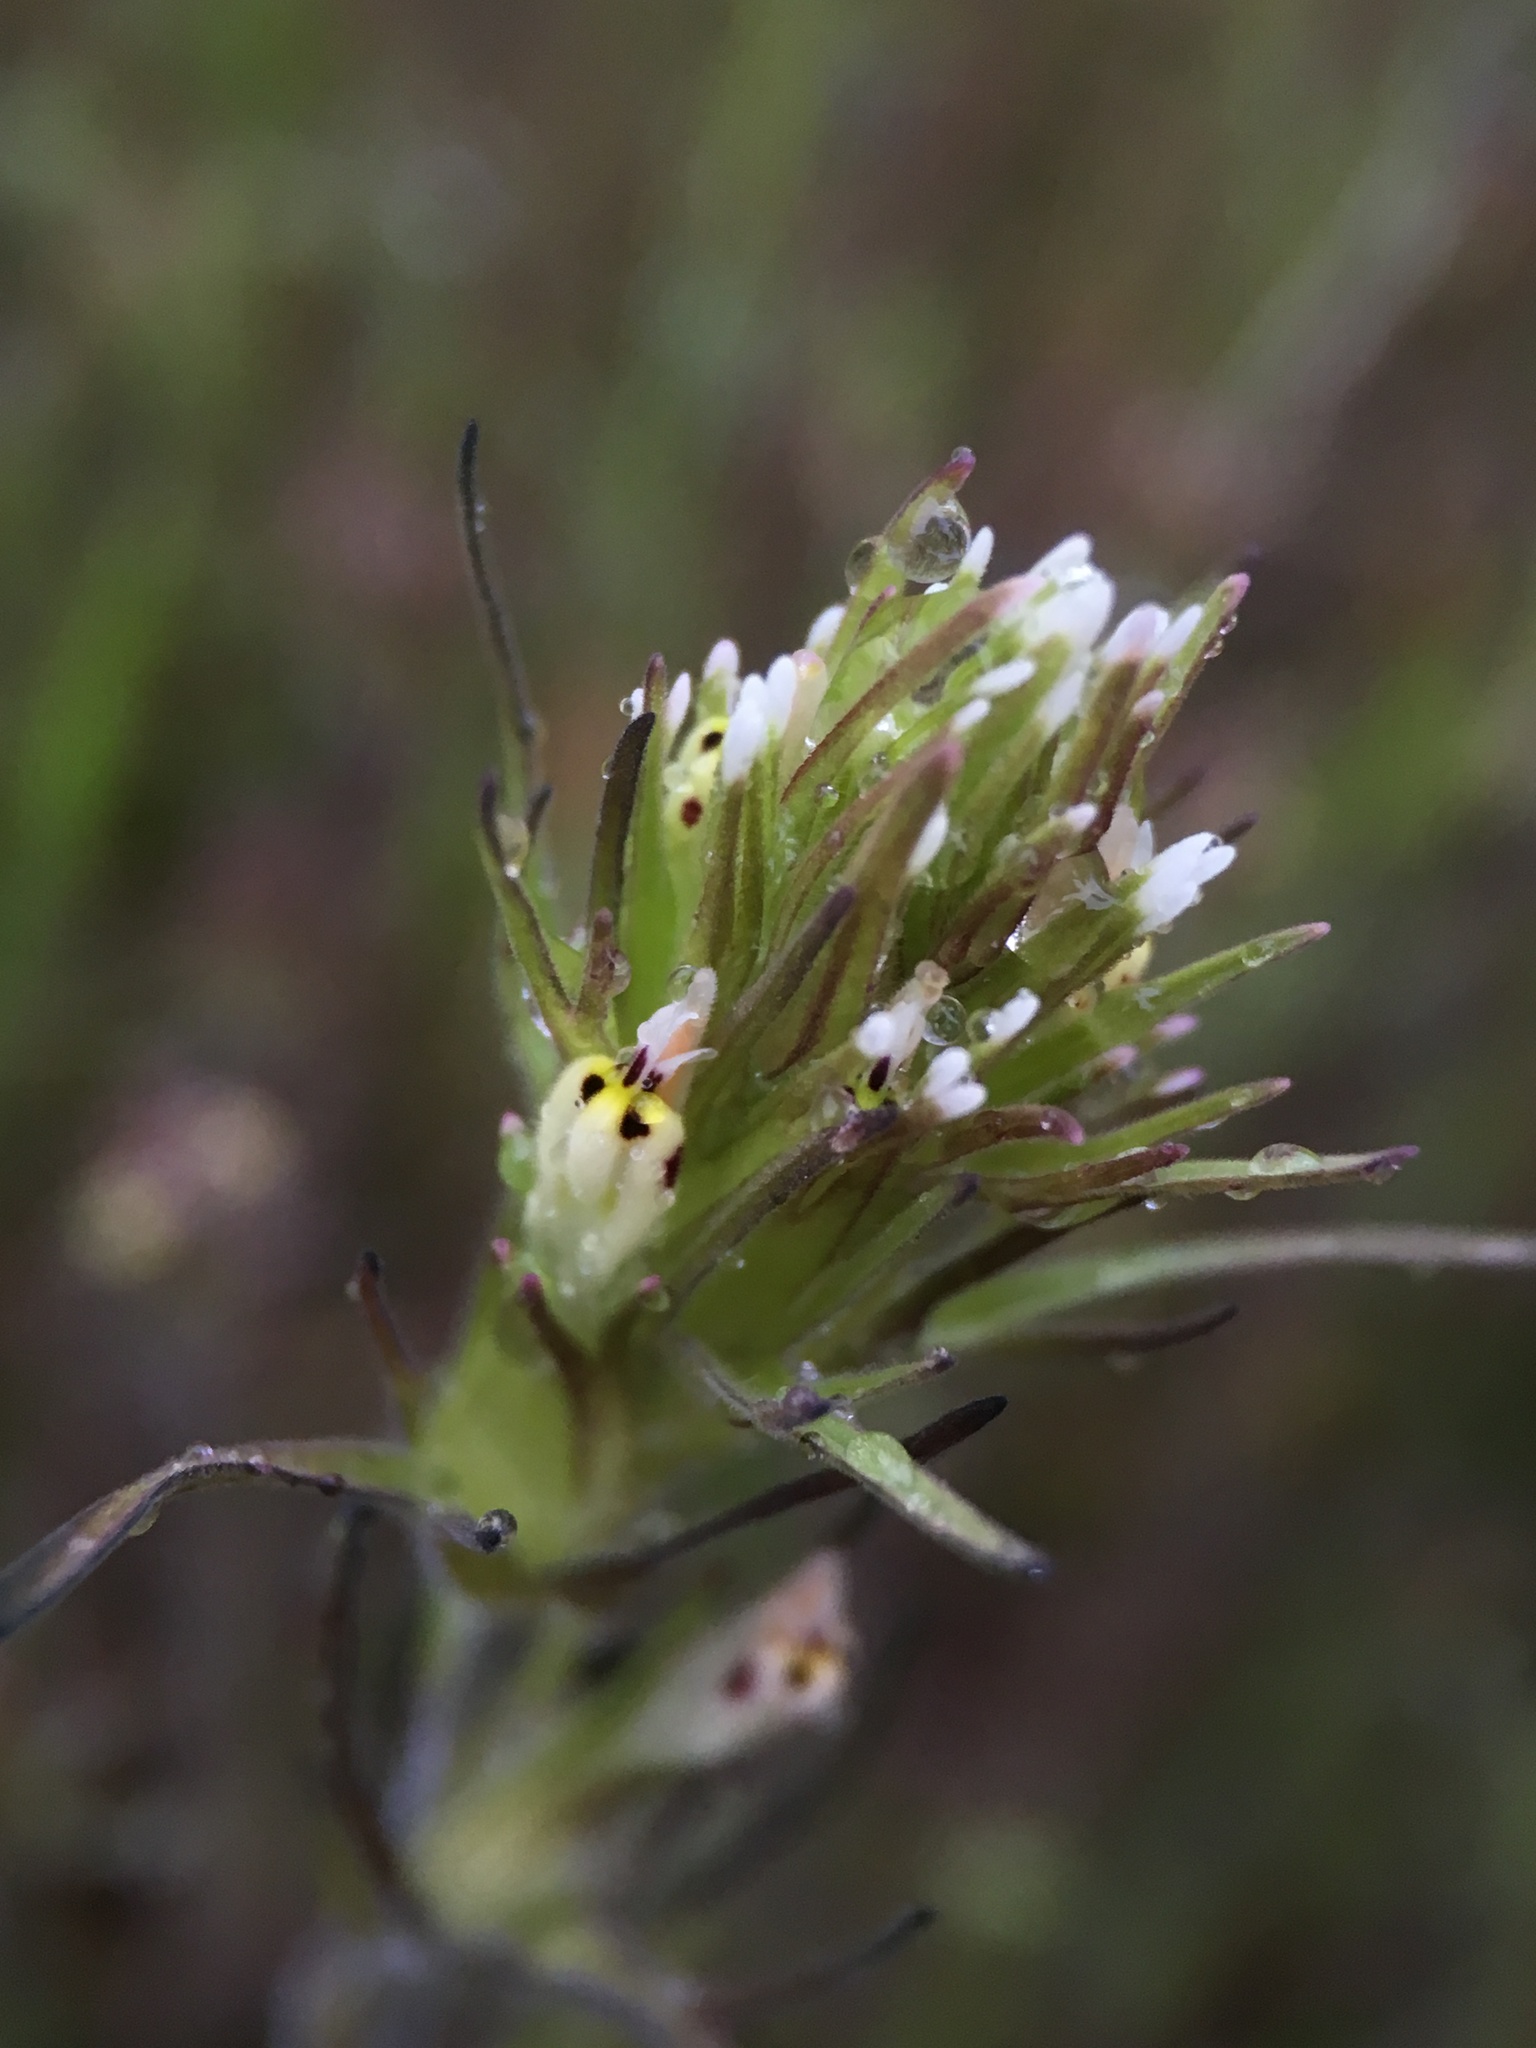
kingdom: Plantae
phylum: Tracheophyta
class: Magnoliopsida
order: Lamiales
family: Orobanchaceae
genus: Castilleja
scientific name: Castilleja attenuata
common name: Valley tassels
